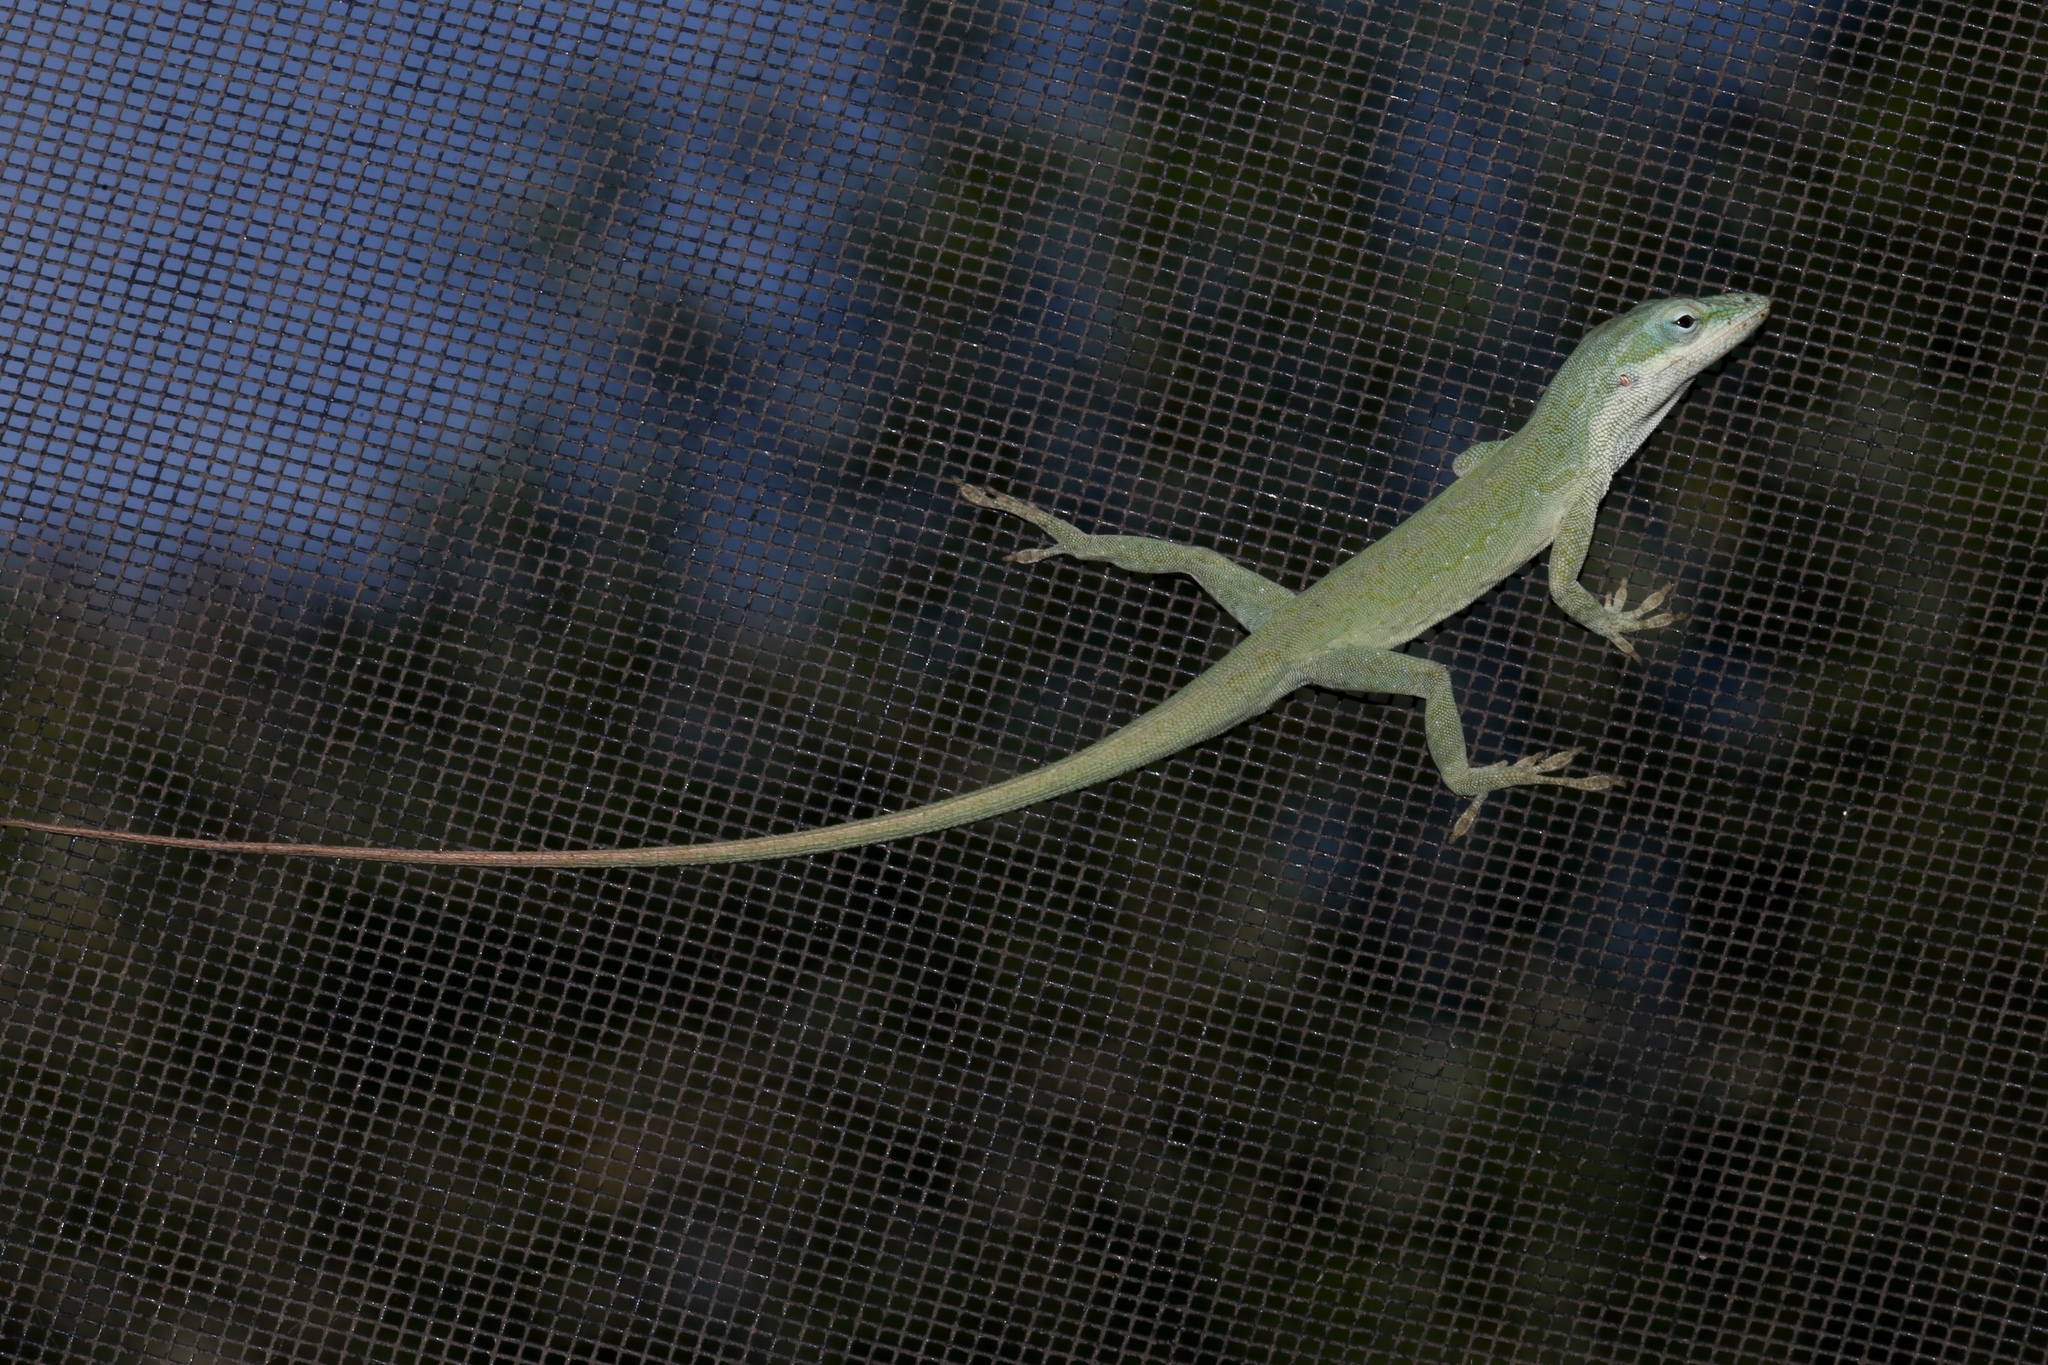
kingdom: Animalia
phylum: Chordata
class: Squamata
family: Dactyloidae
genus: Anolis
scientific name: Anolis carolinensis
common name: Green anole
